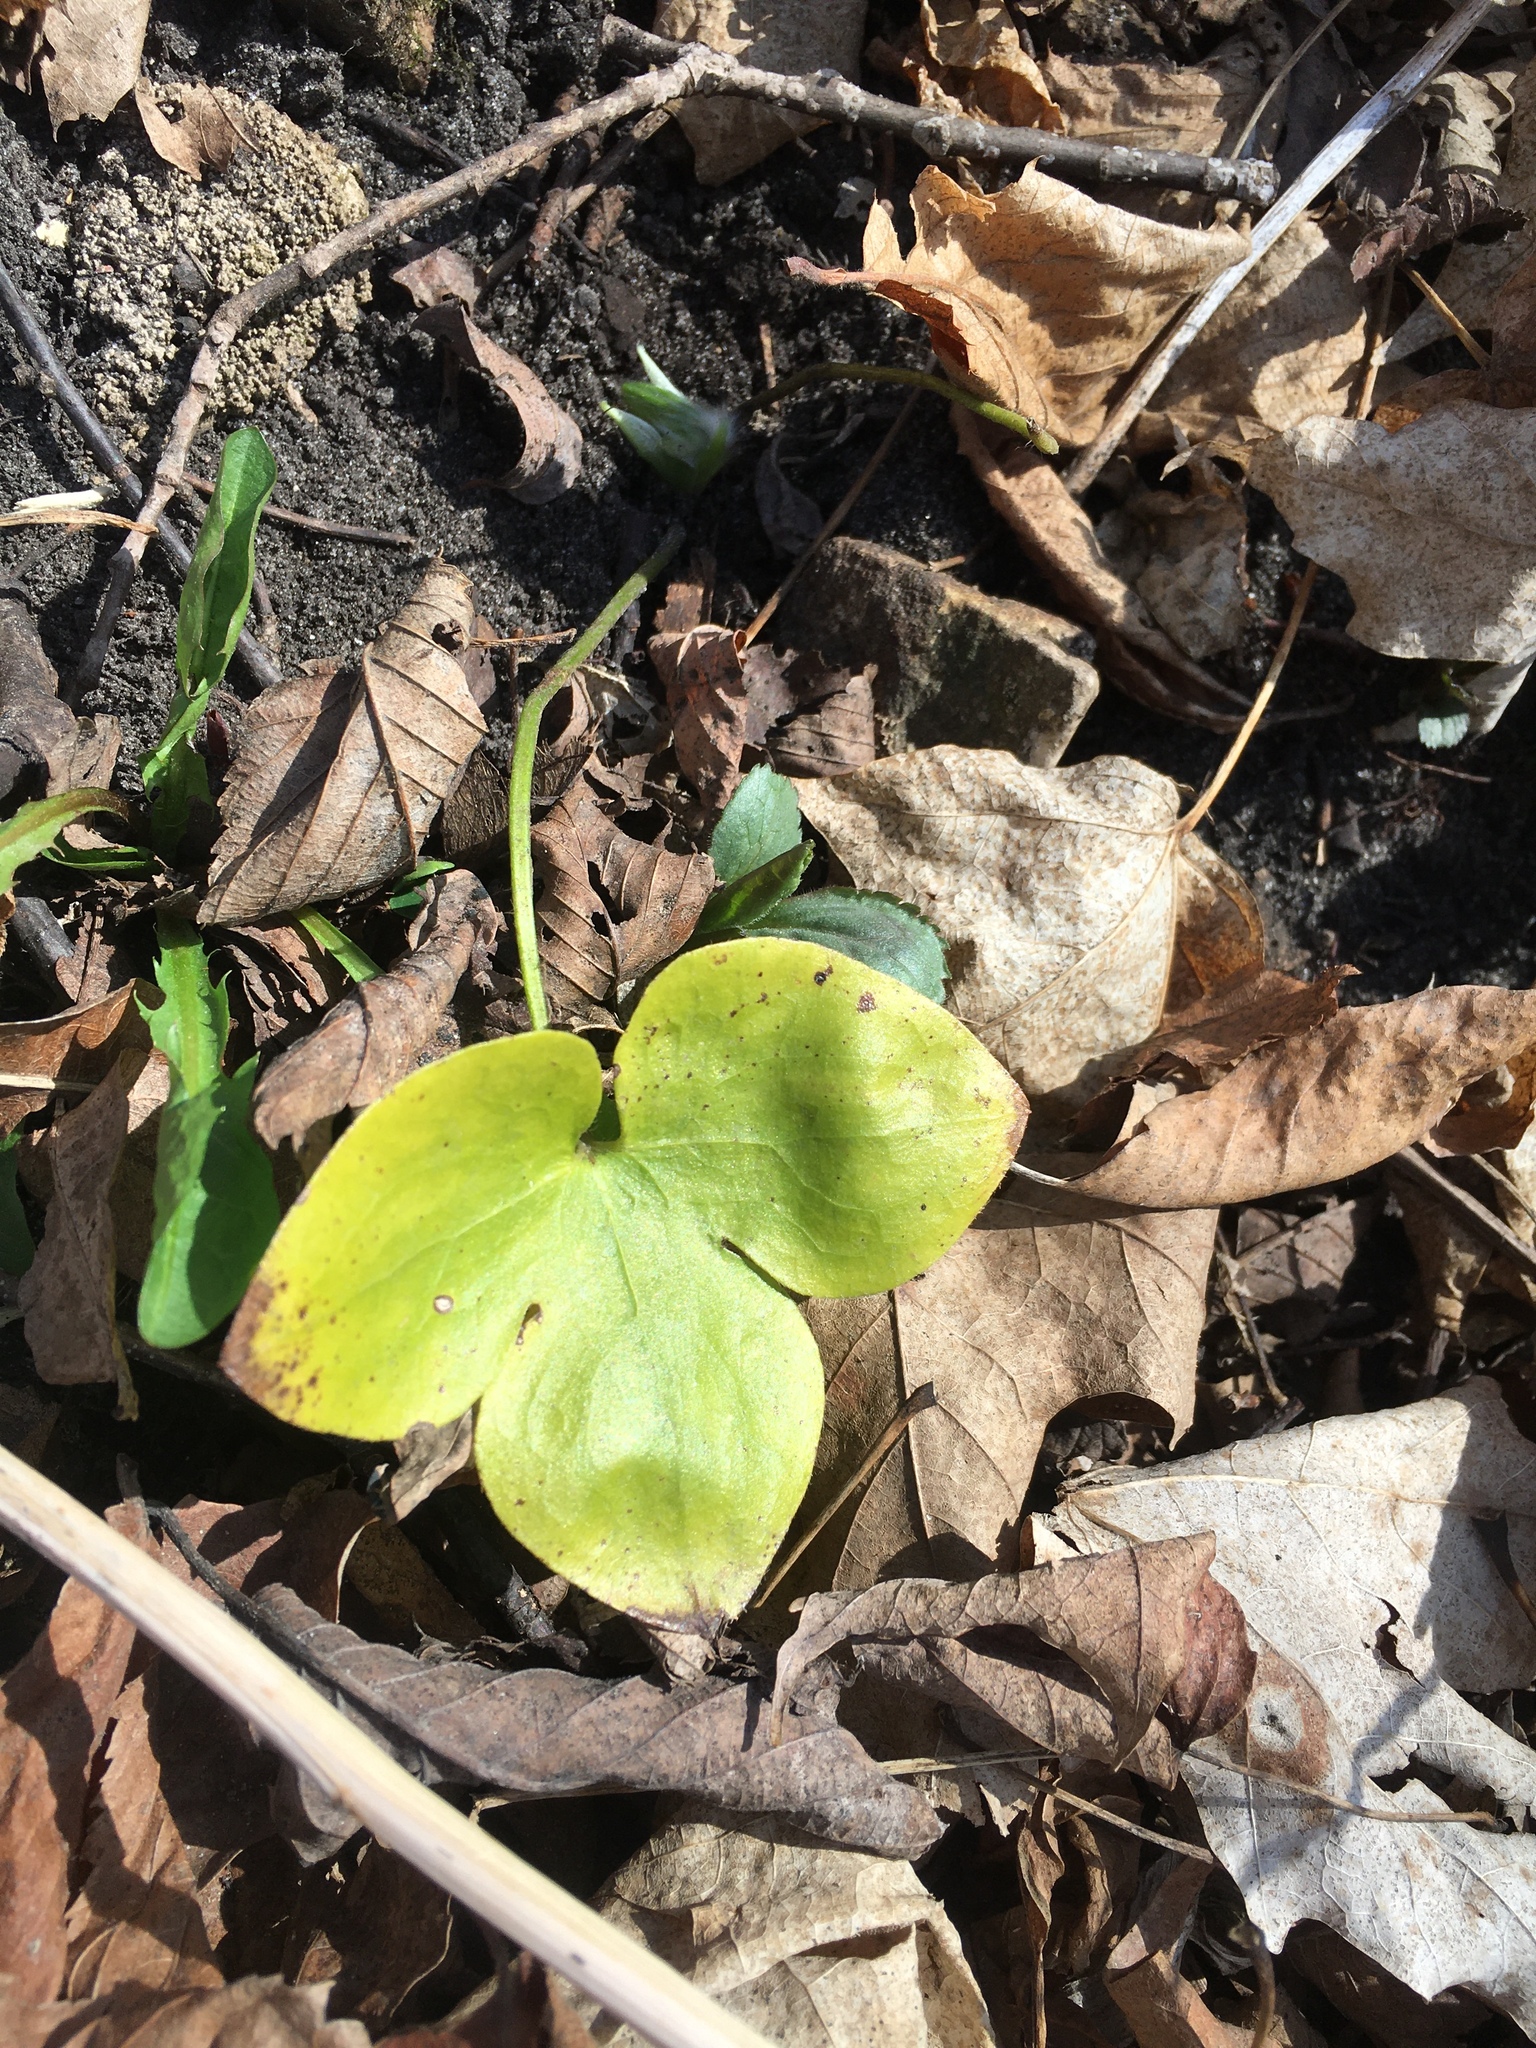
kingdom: Plantae
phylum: Tracheophyta
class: Magnoliopsida
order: Ranunculales
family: Ranunculaceae
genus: Hepatica
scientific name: Hepatica acutiloba
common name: Sharp-lobed hepatica
